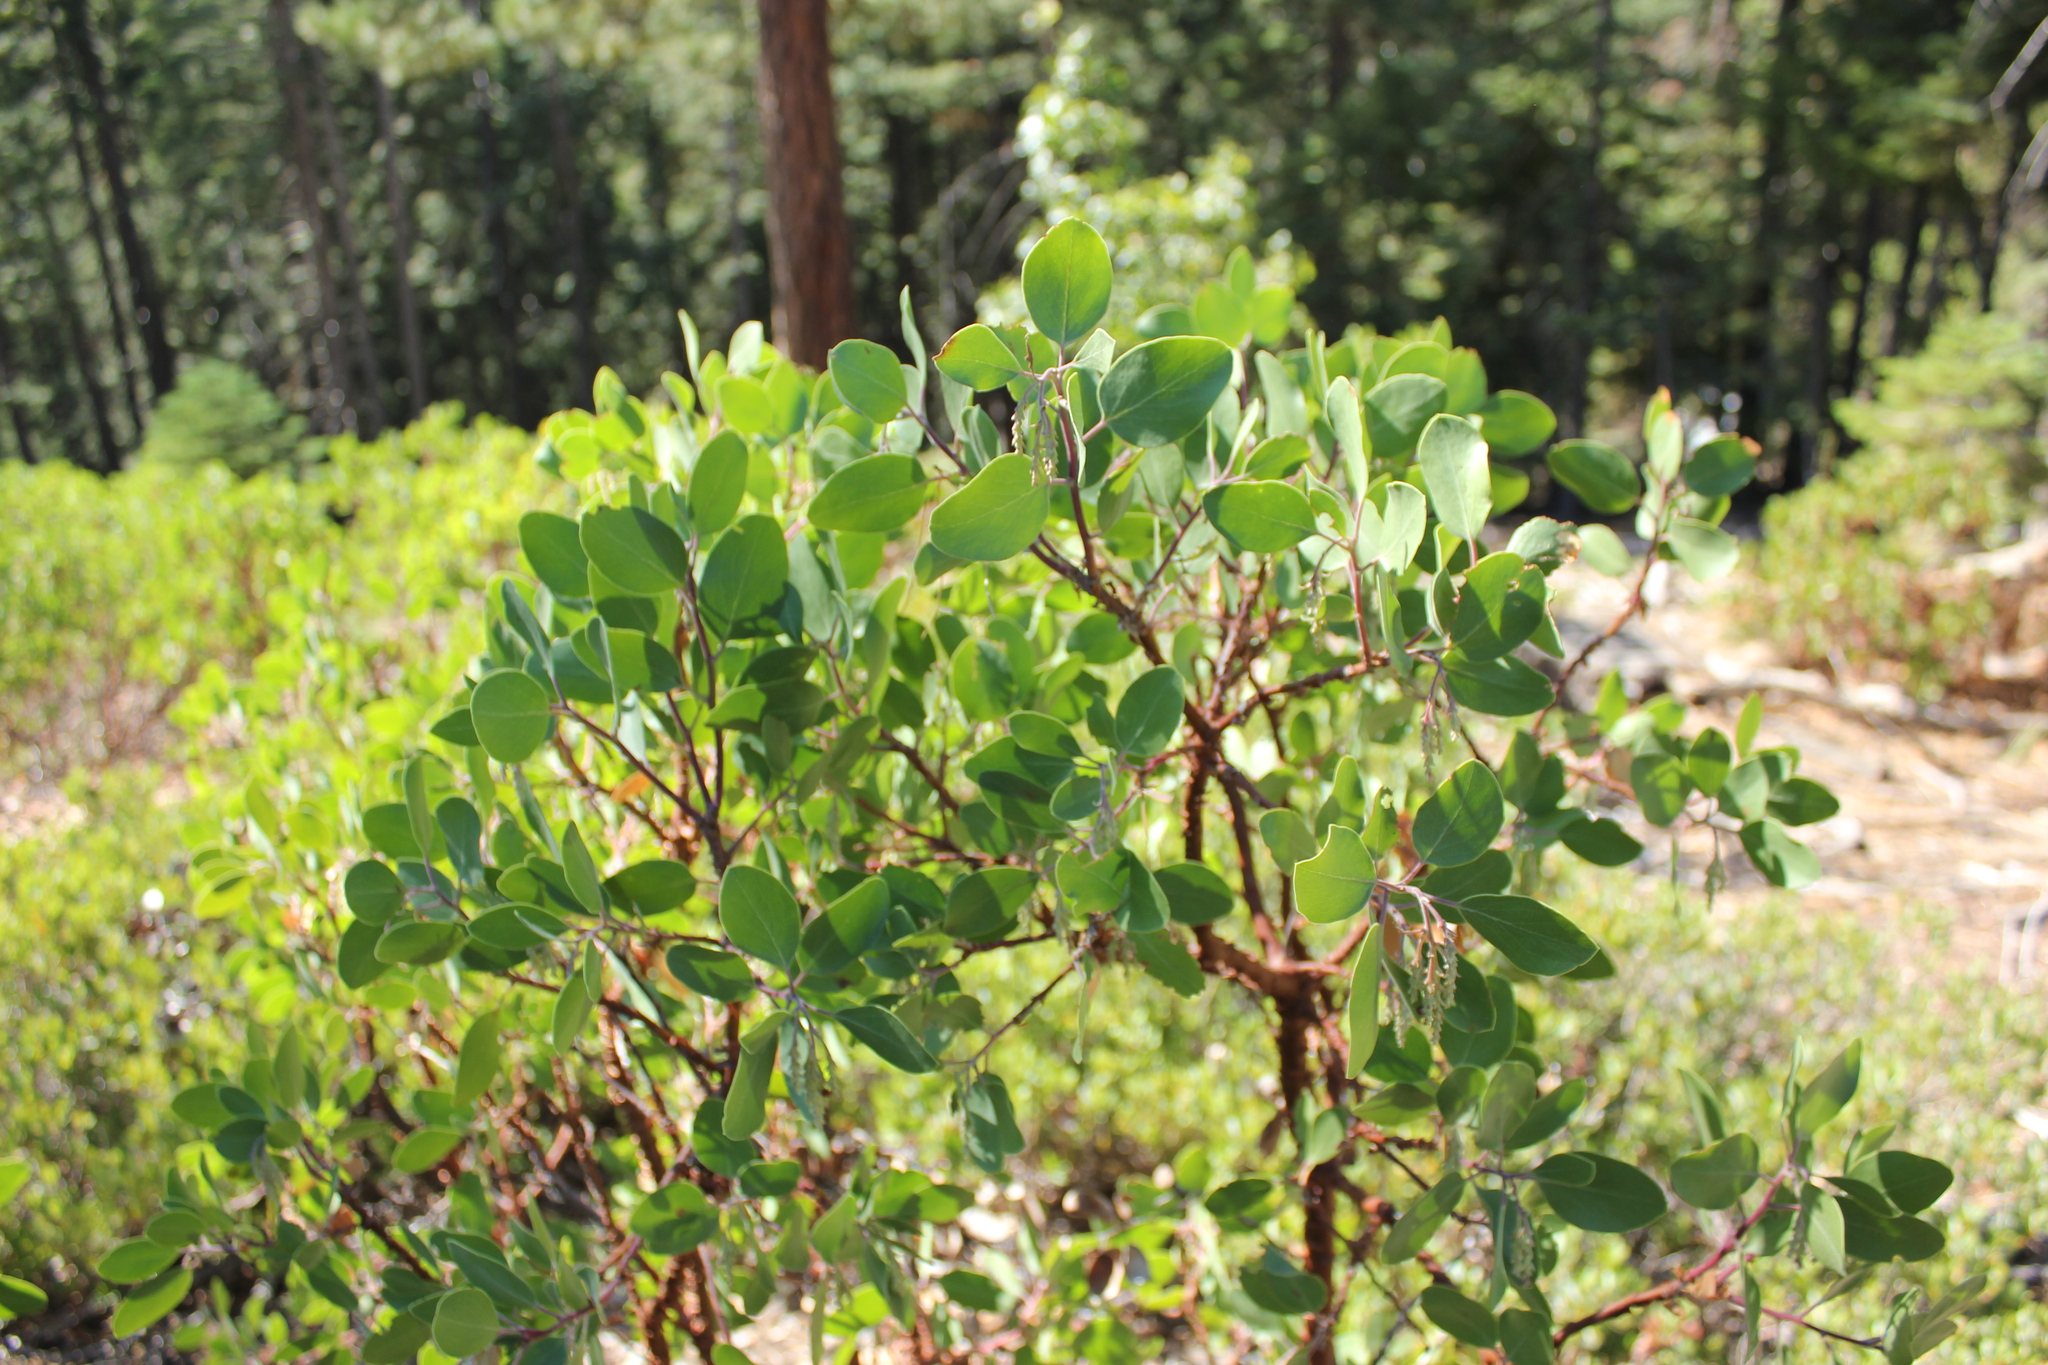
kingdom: Plantae
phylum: Tracheophyta
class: Magnoliopsida
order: Ericales
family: Ericaceae
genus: Arctostaphylos
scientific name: Arctostaphylos patula
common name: Green-leaf manzanita
